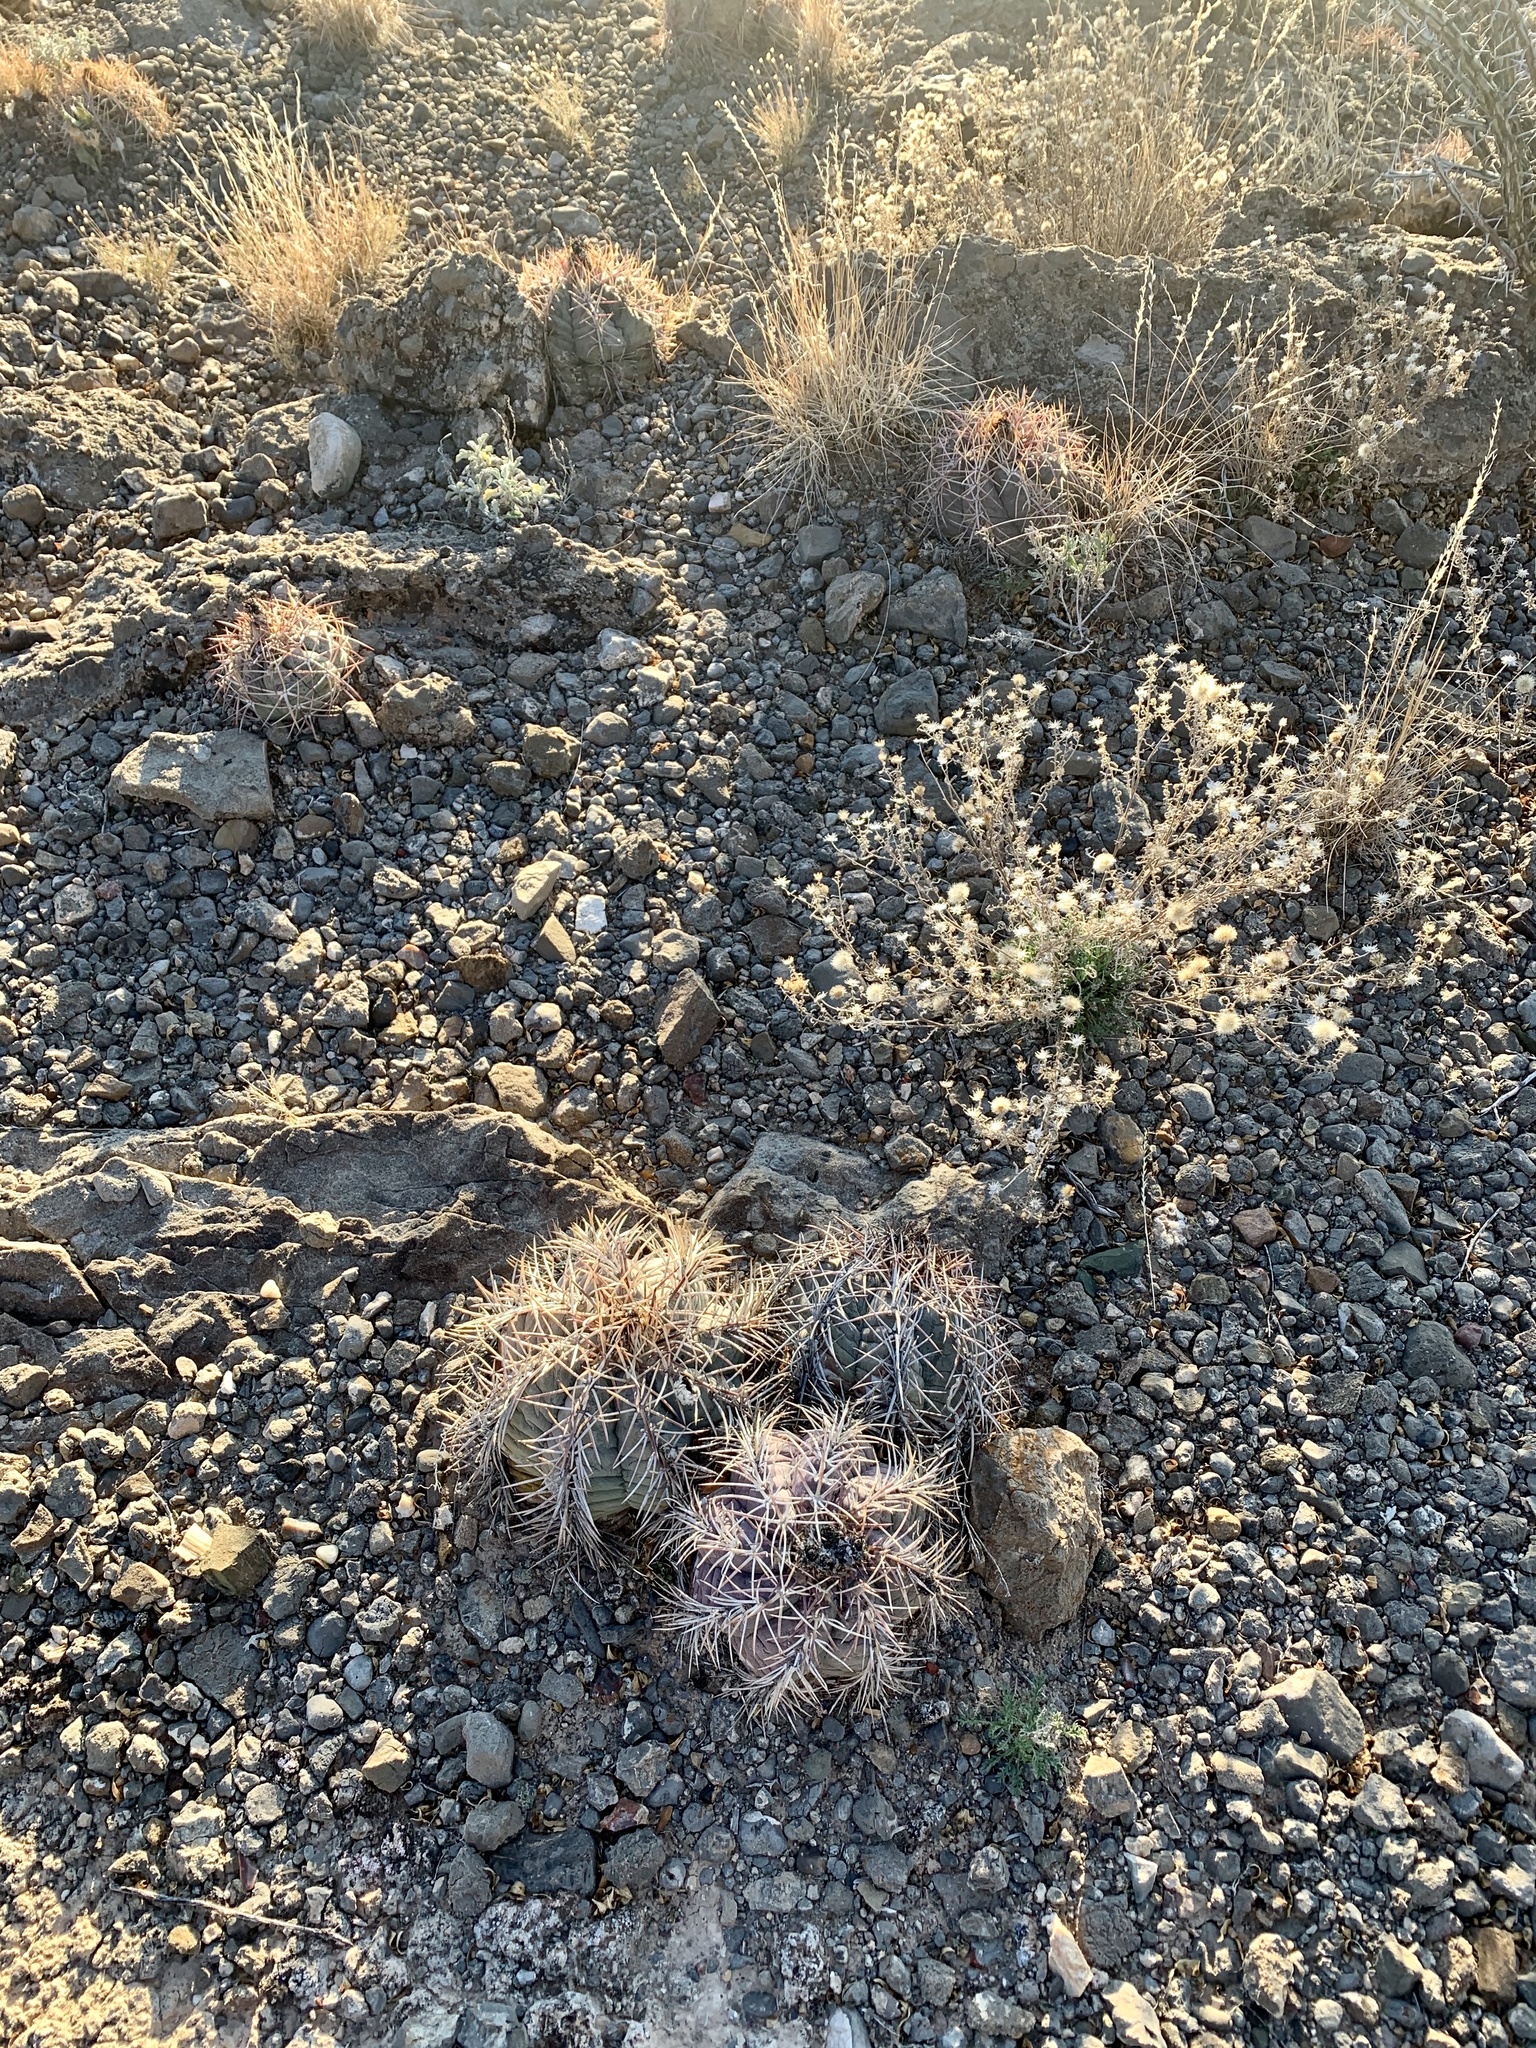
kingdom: Plantae
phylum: Tracheophyta
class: Magnoliopsida
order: Caryophyllales
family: Cactaceae
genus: Echinocactus
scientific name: Echinocactus horizonthalonius
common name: Devilshead
